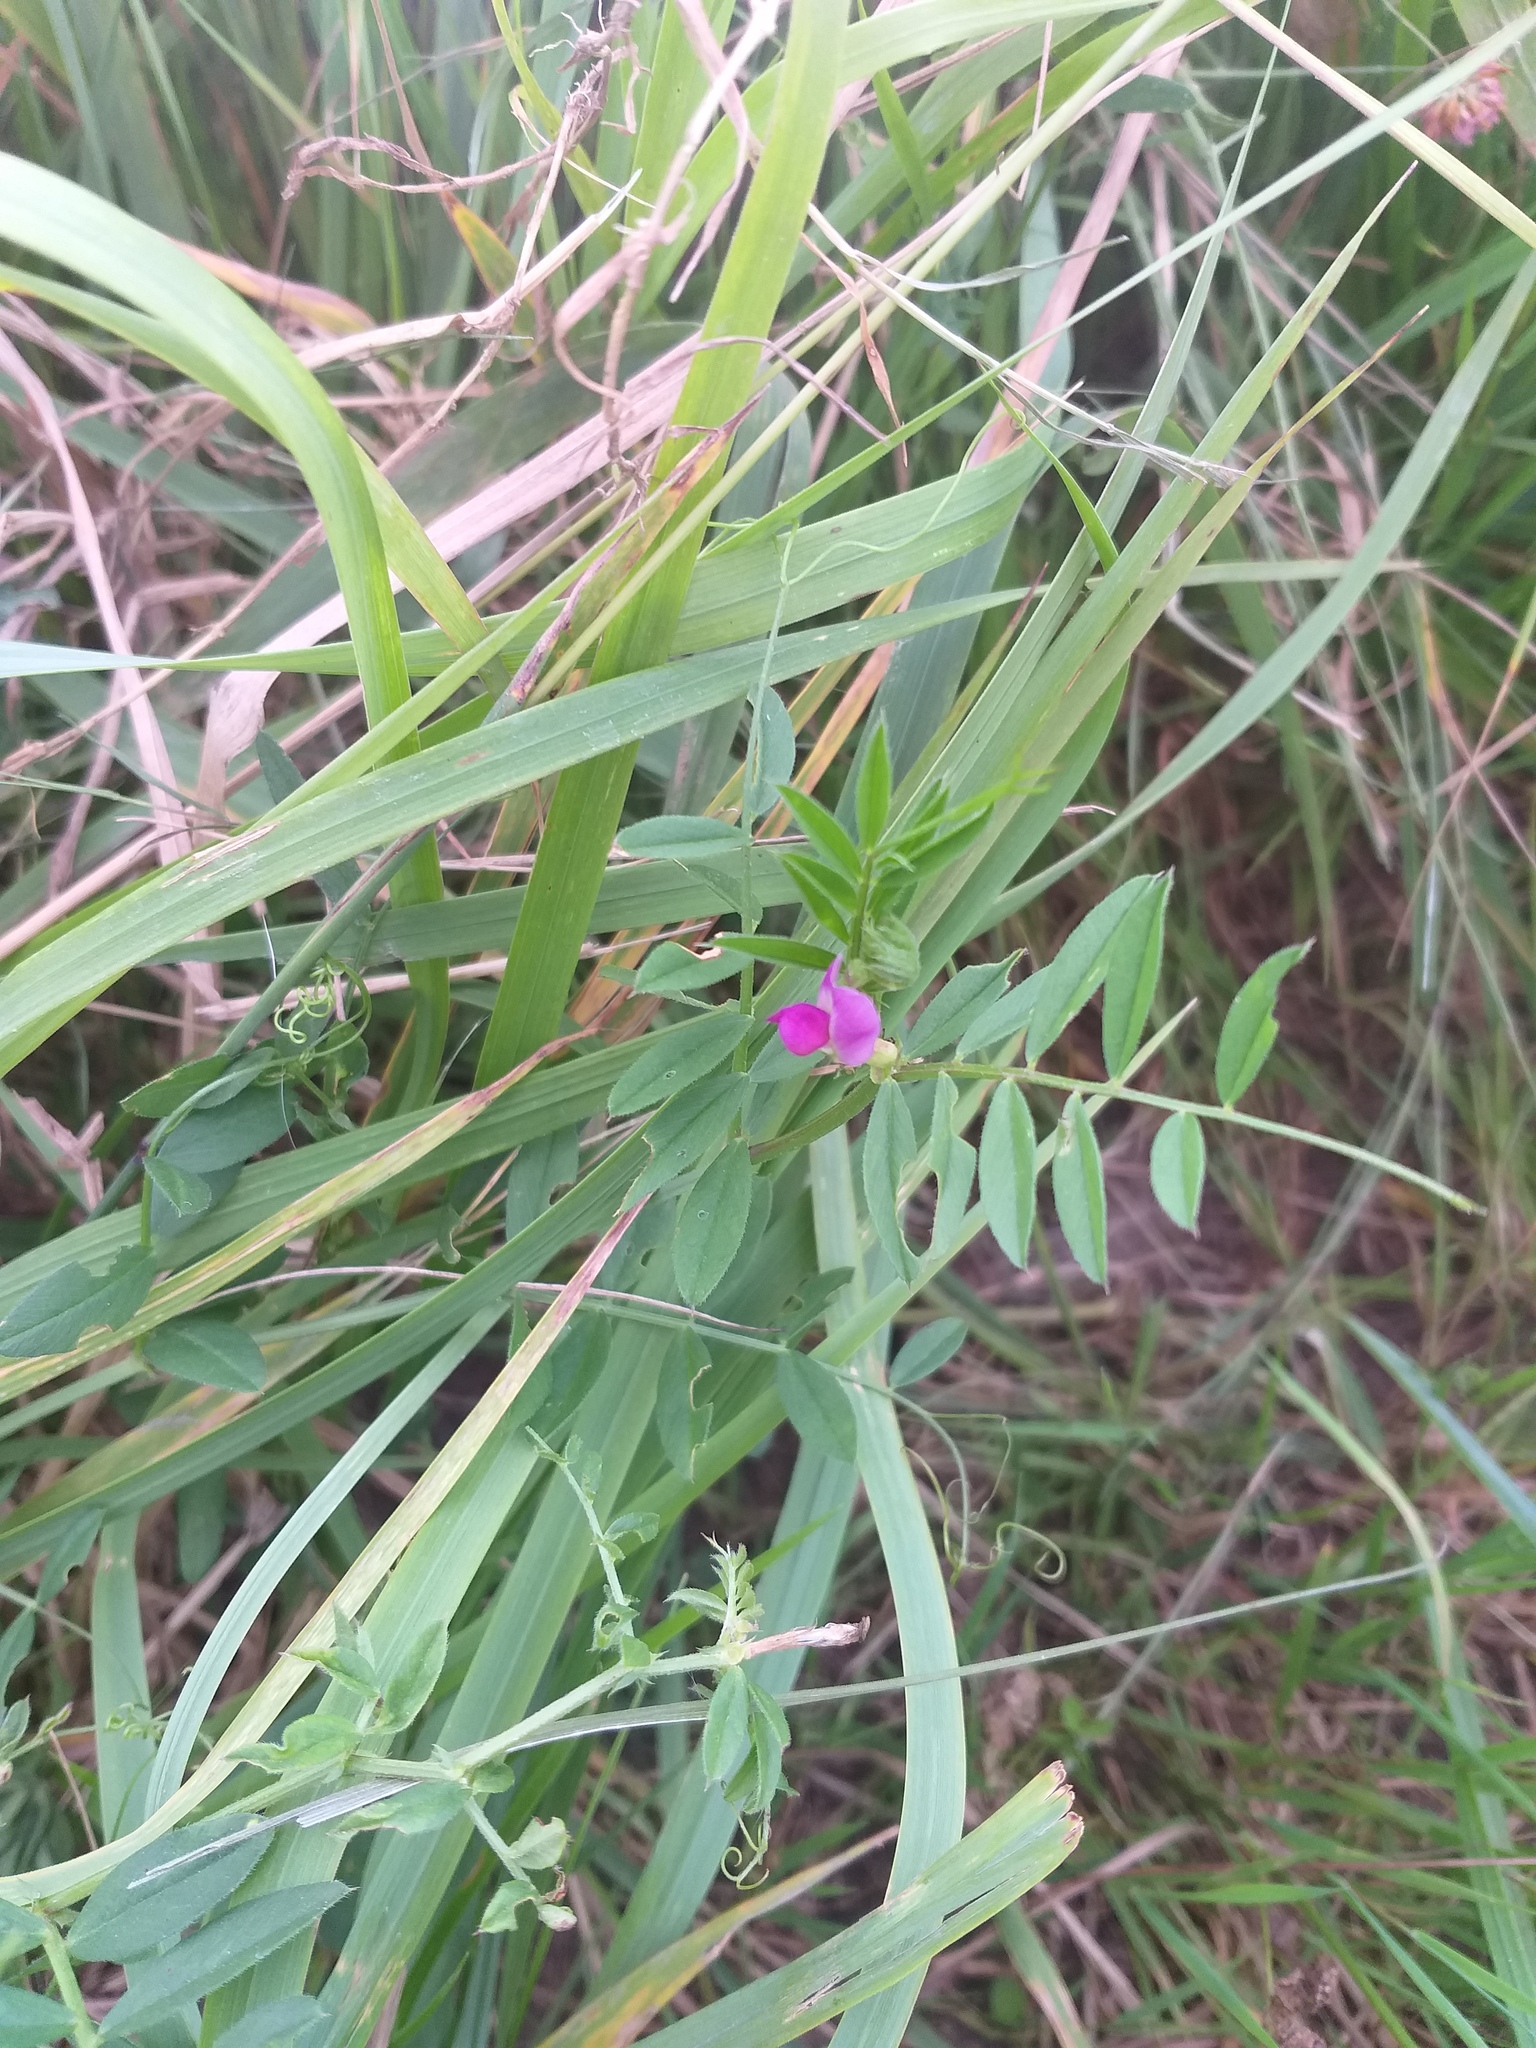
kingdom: Plantae
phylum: Tracheophyta
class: Magnoliopsida
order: Fabales
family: Fabaceae
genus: Vicia
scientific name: Vicia sativa
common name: Garden vetch
